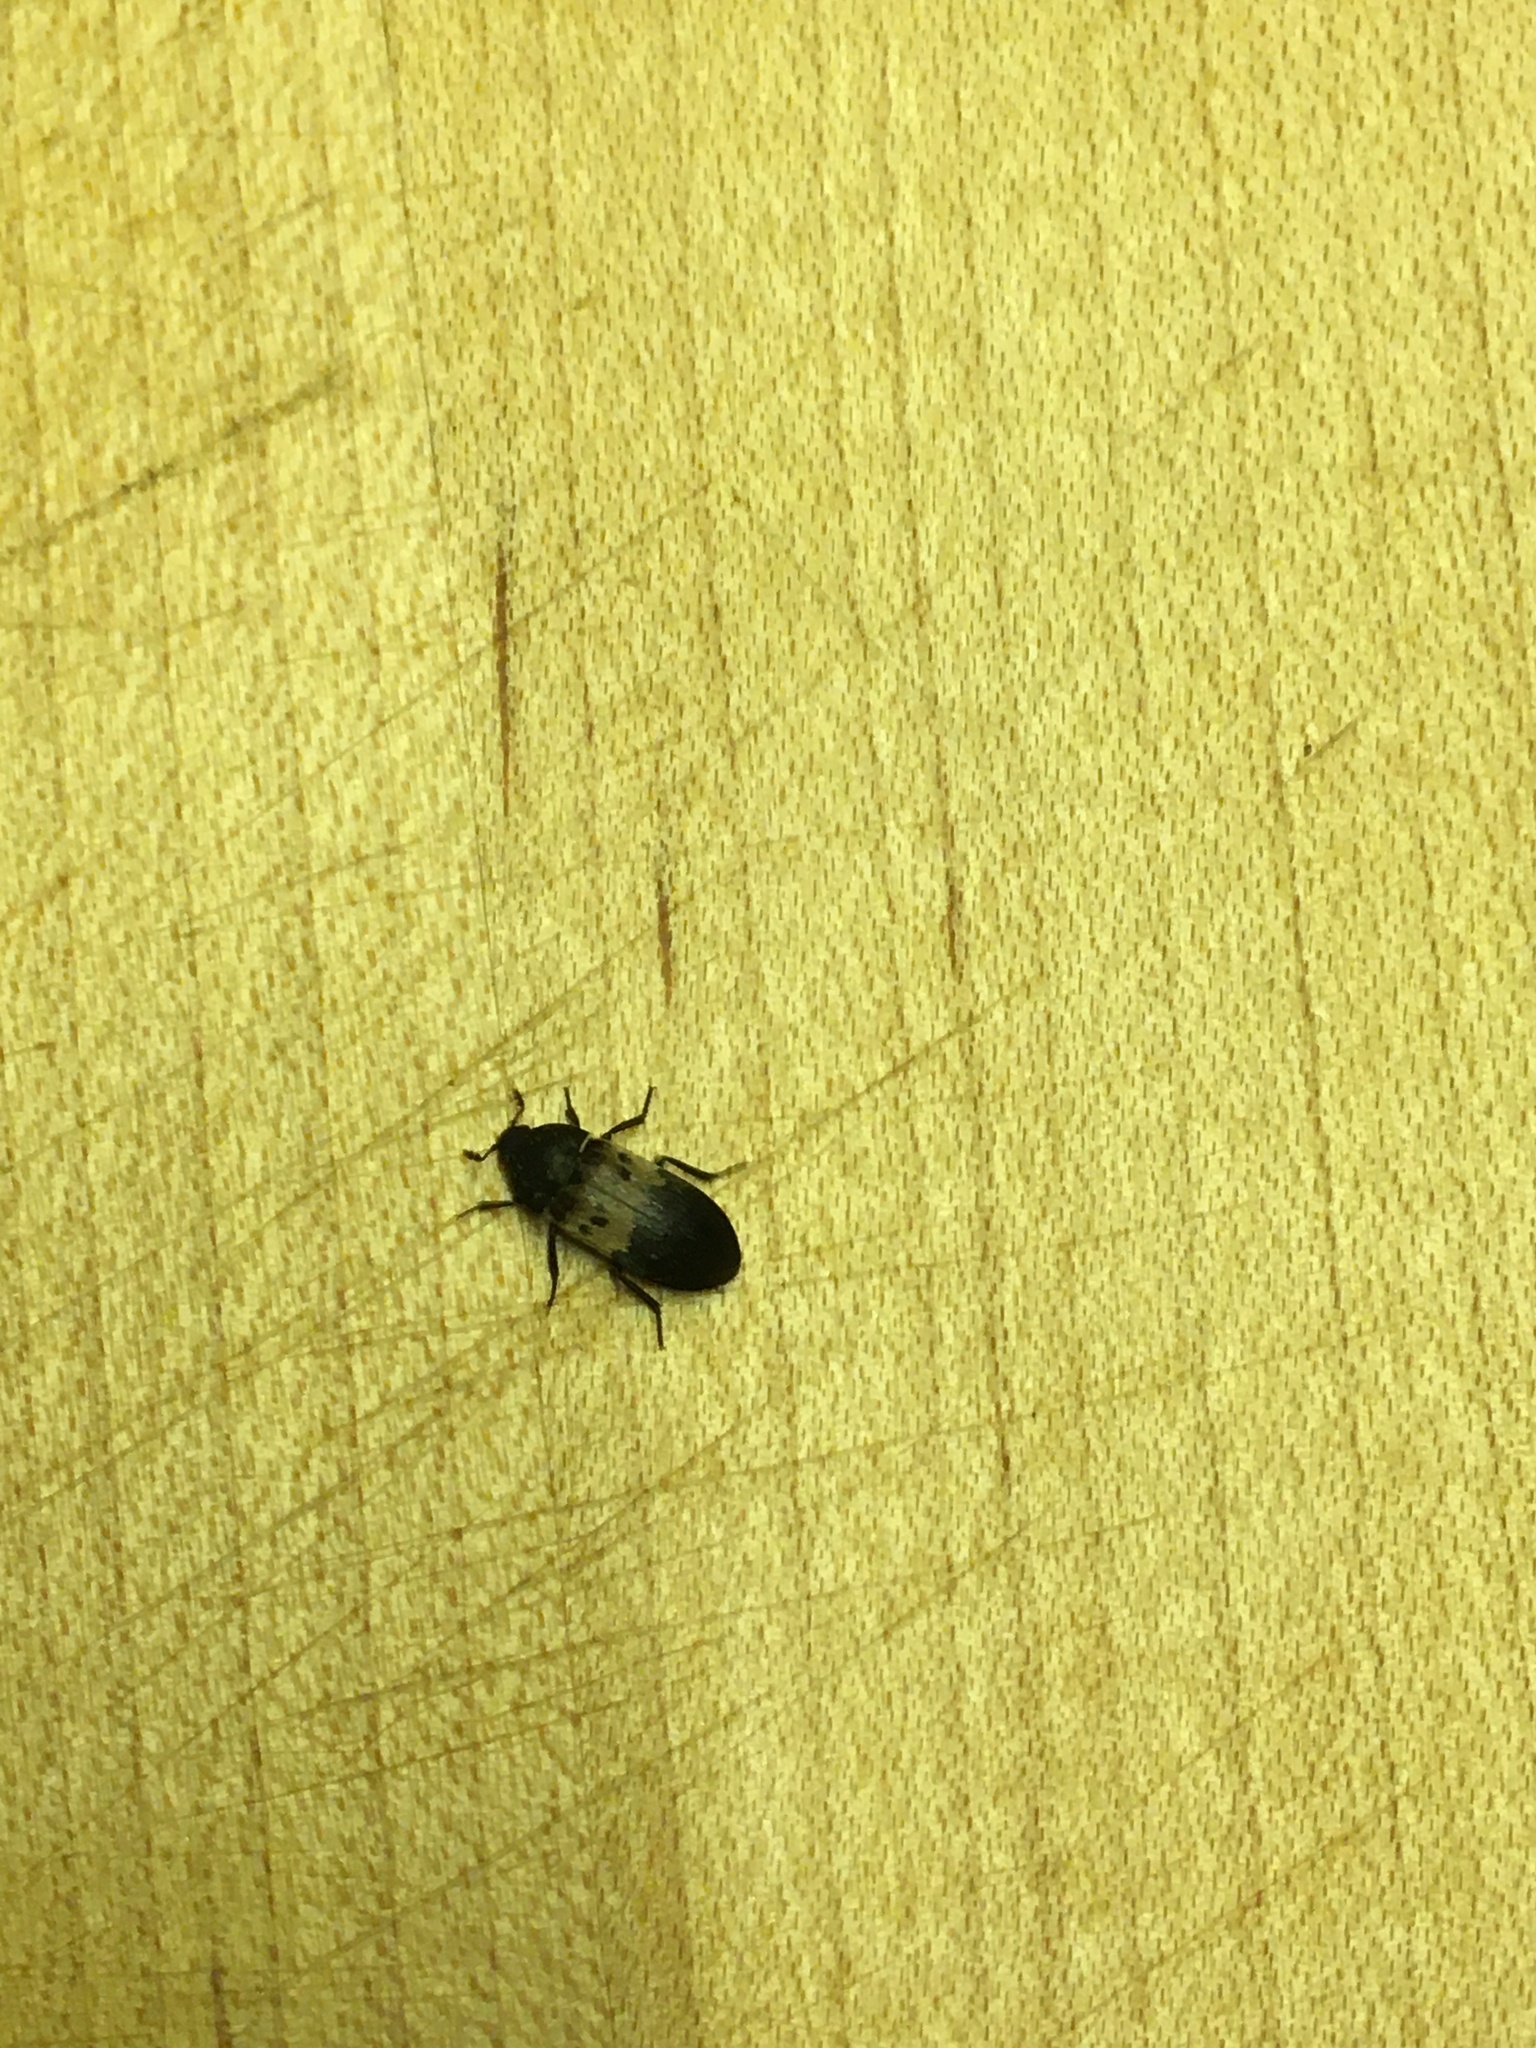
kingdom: Animalia
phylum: Arthropoda
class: Insecta
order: Coleoptera
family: Dermestidae
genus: Dermestes
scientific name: Dermestes lardarius
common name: Larder beetle
